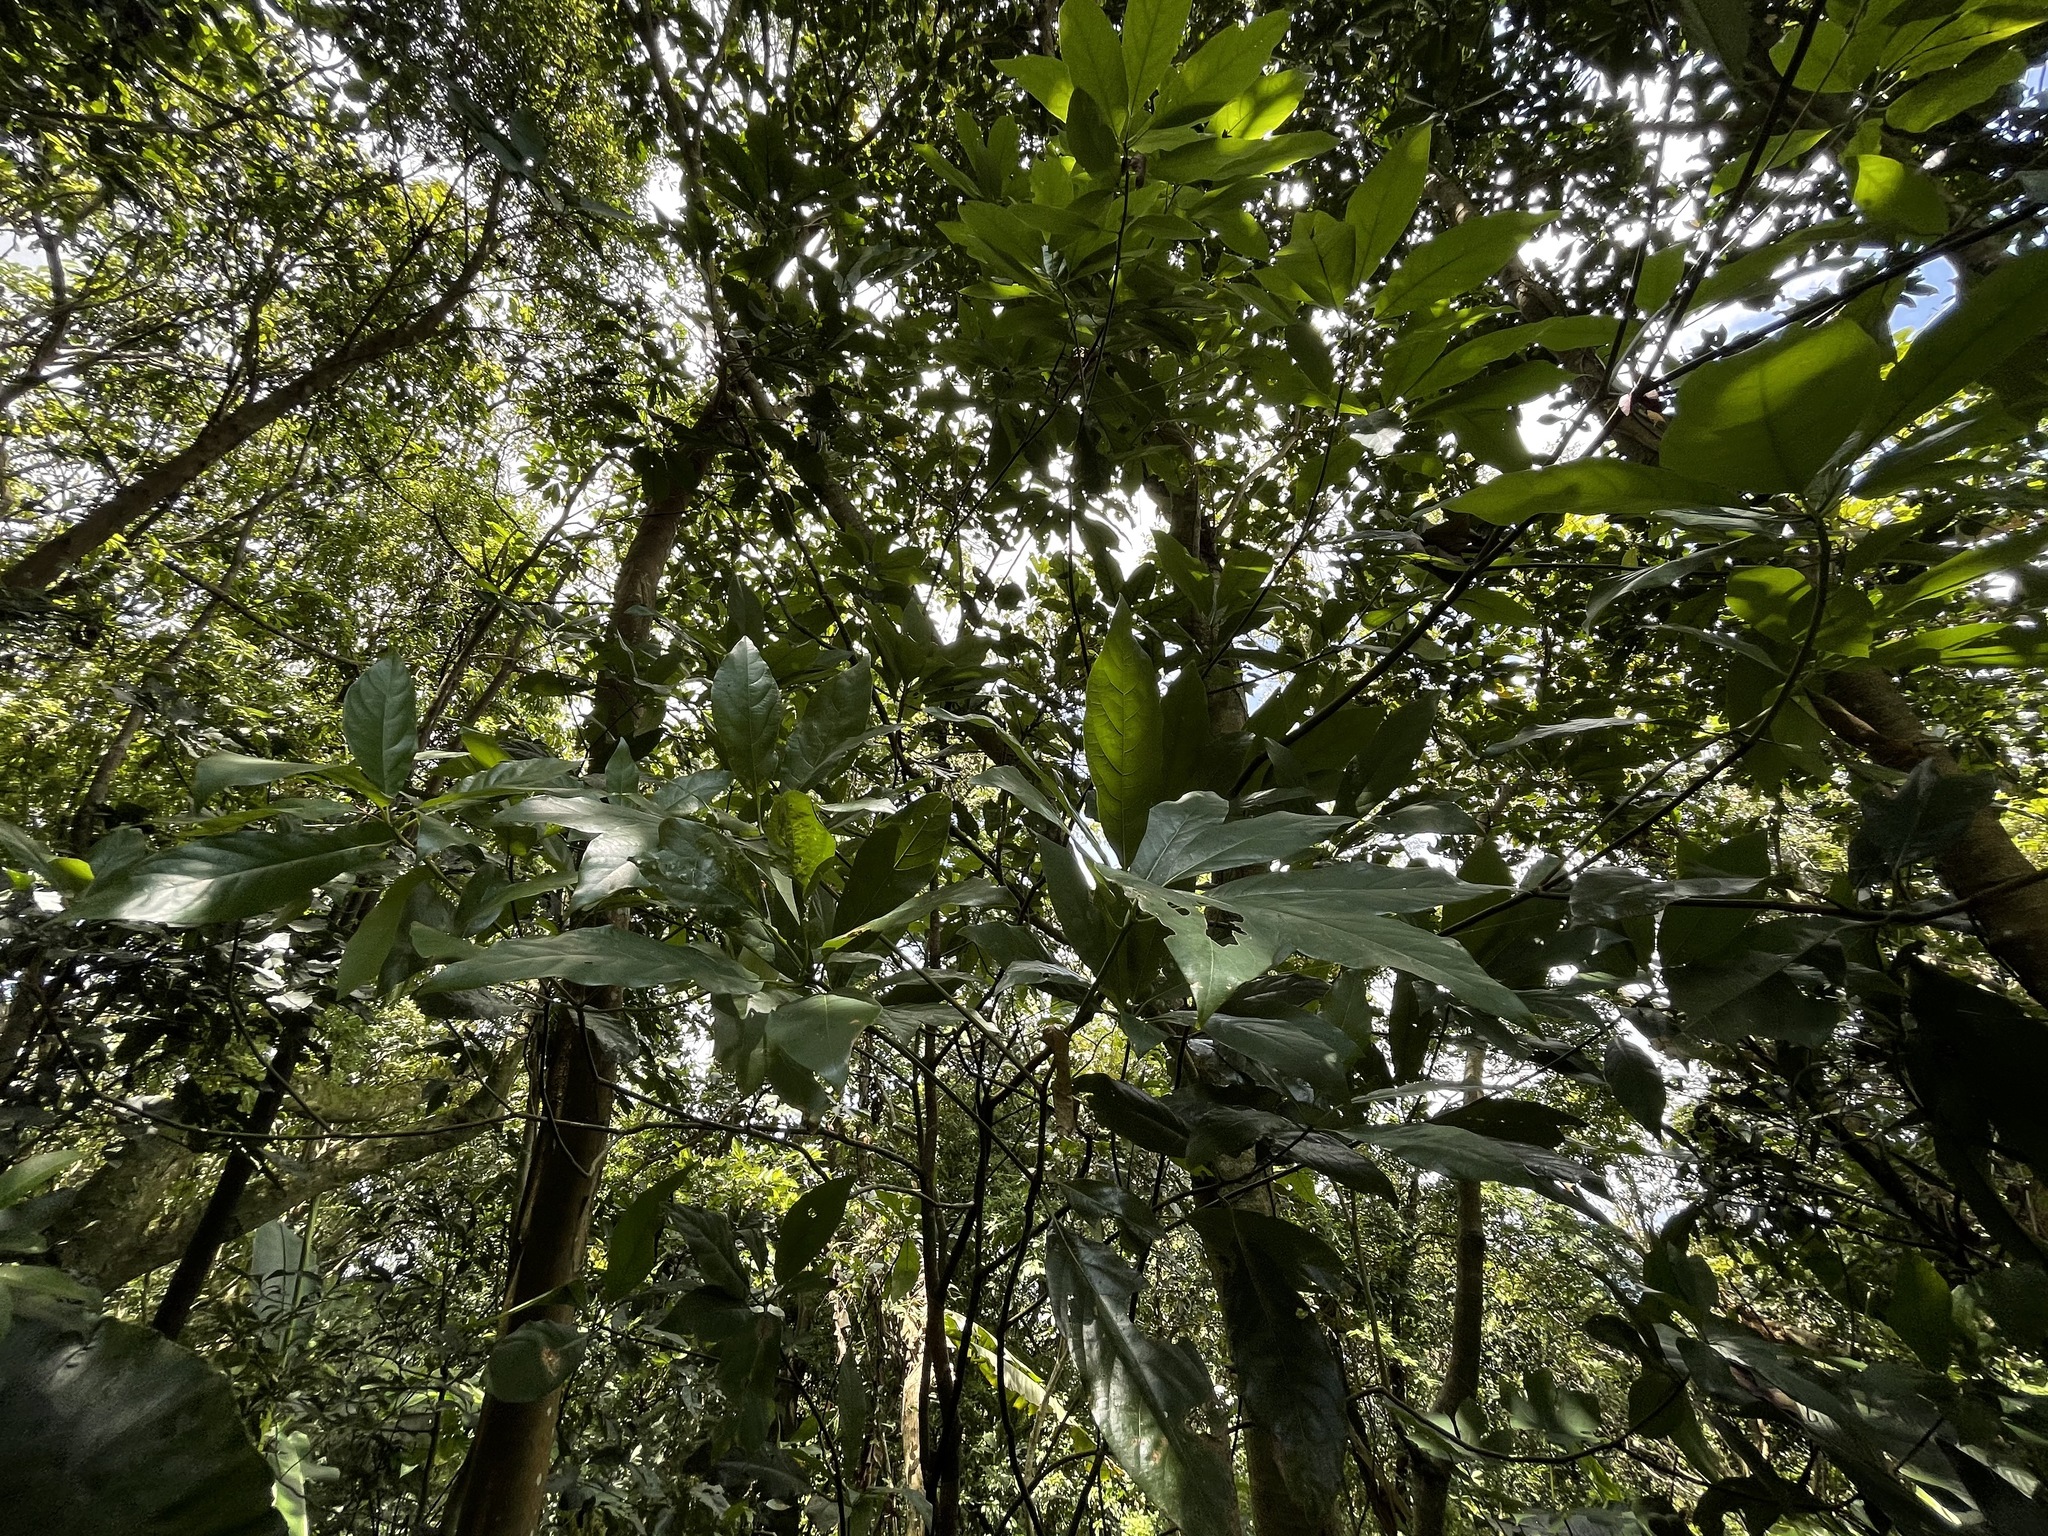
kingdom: Plantae
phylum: Tracheophyta
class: Magnoliopsida
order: Laurales
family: Lauraceae
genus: Lindera
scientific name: Lindera megaphylla
